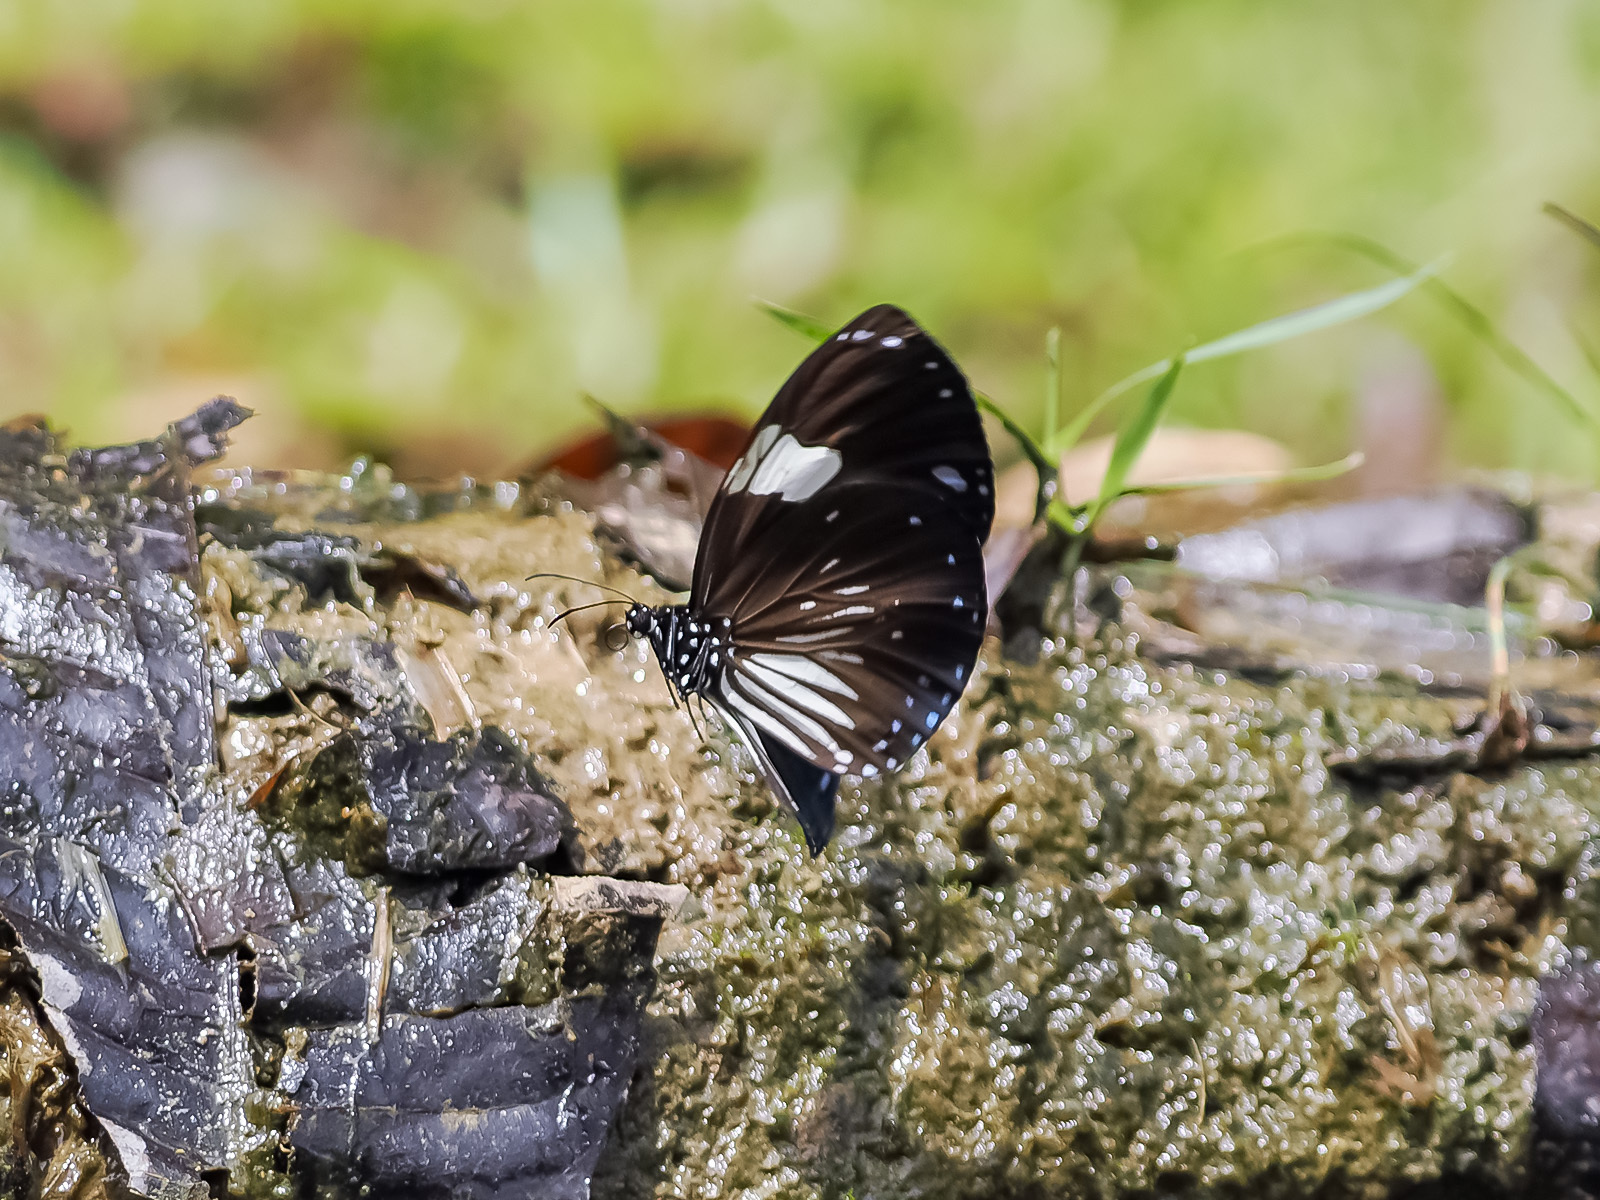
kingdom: Animalia
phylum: Arthropoda
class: Insecta
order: Lepidoptera
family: Nymphalidae
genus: Euploea
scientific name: Euploea radamanthus
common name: Magpie crow butterfly
